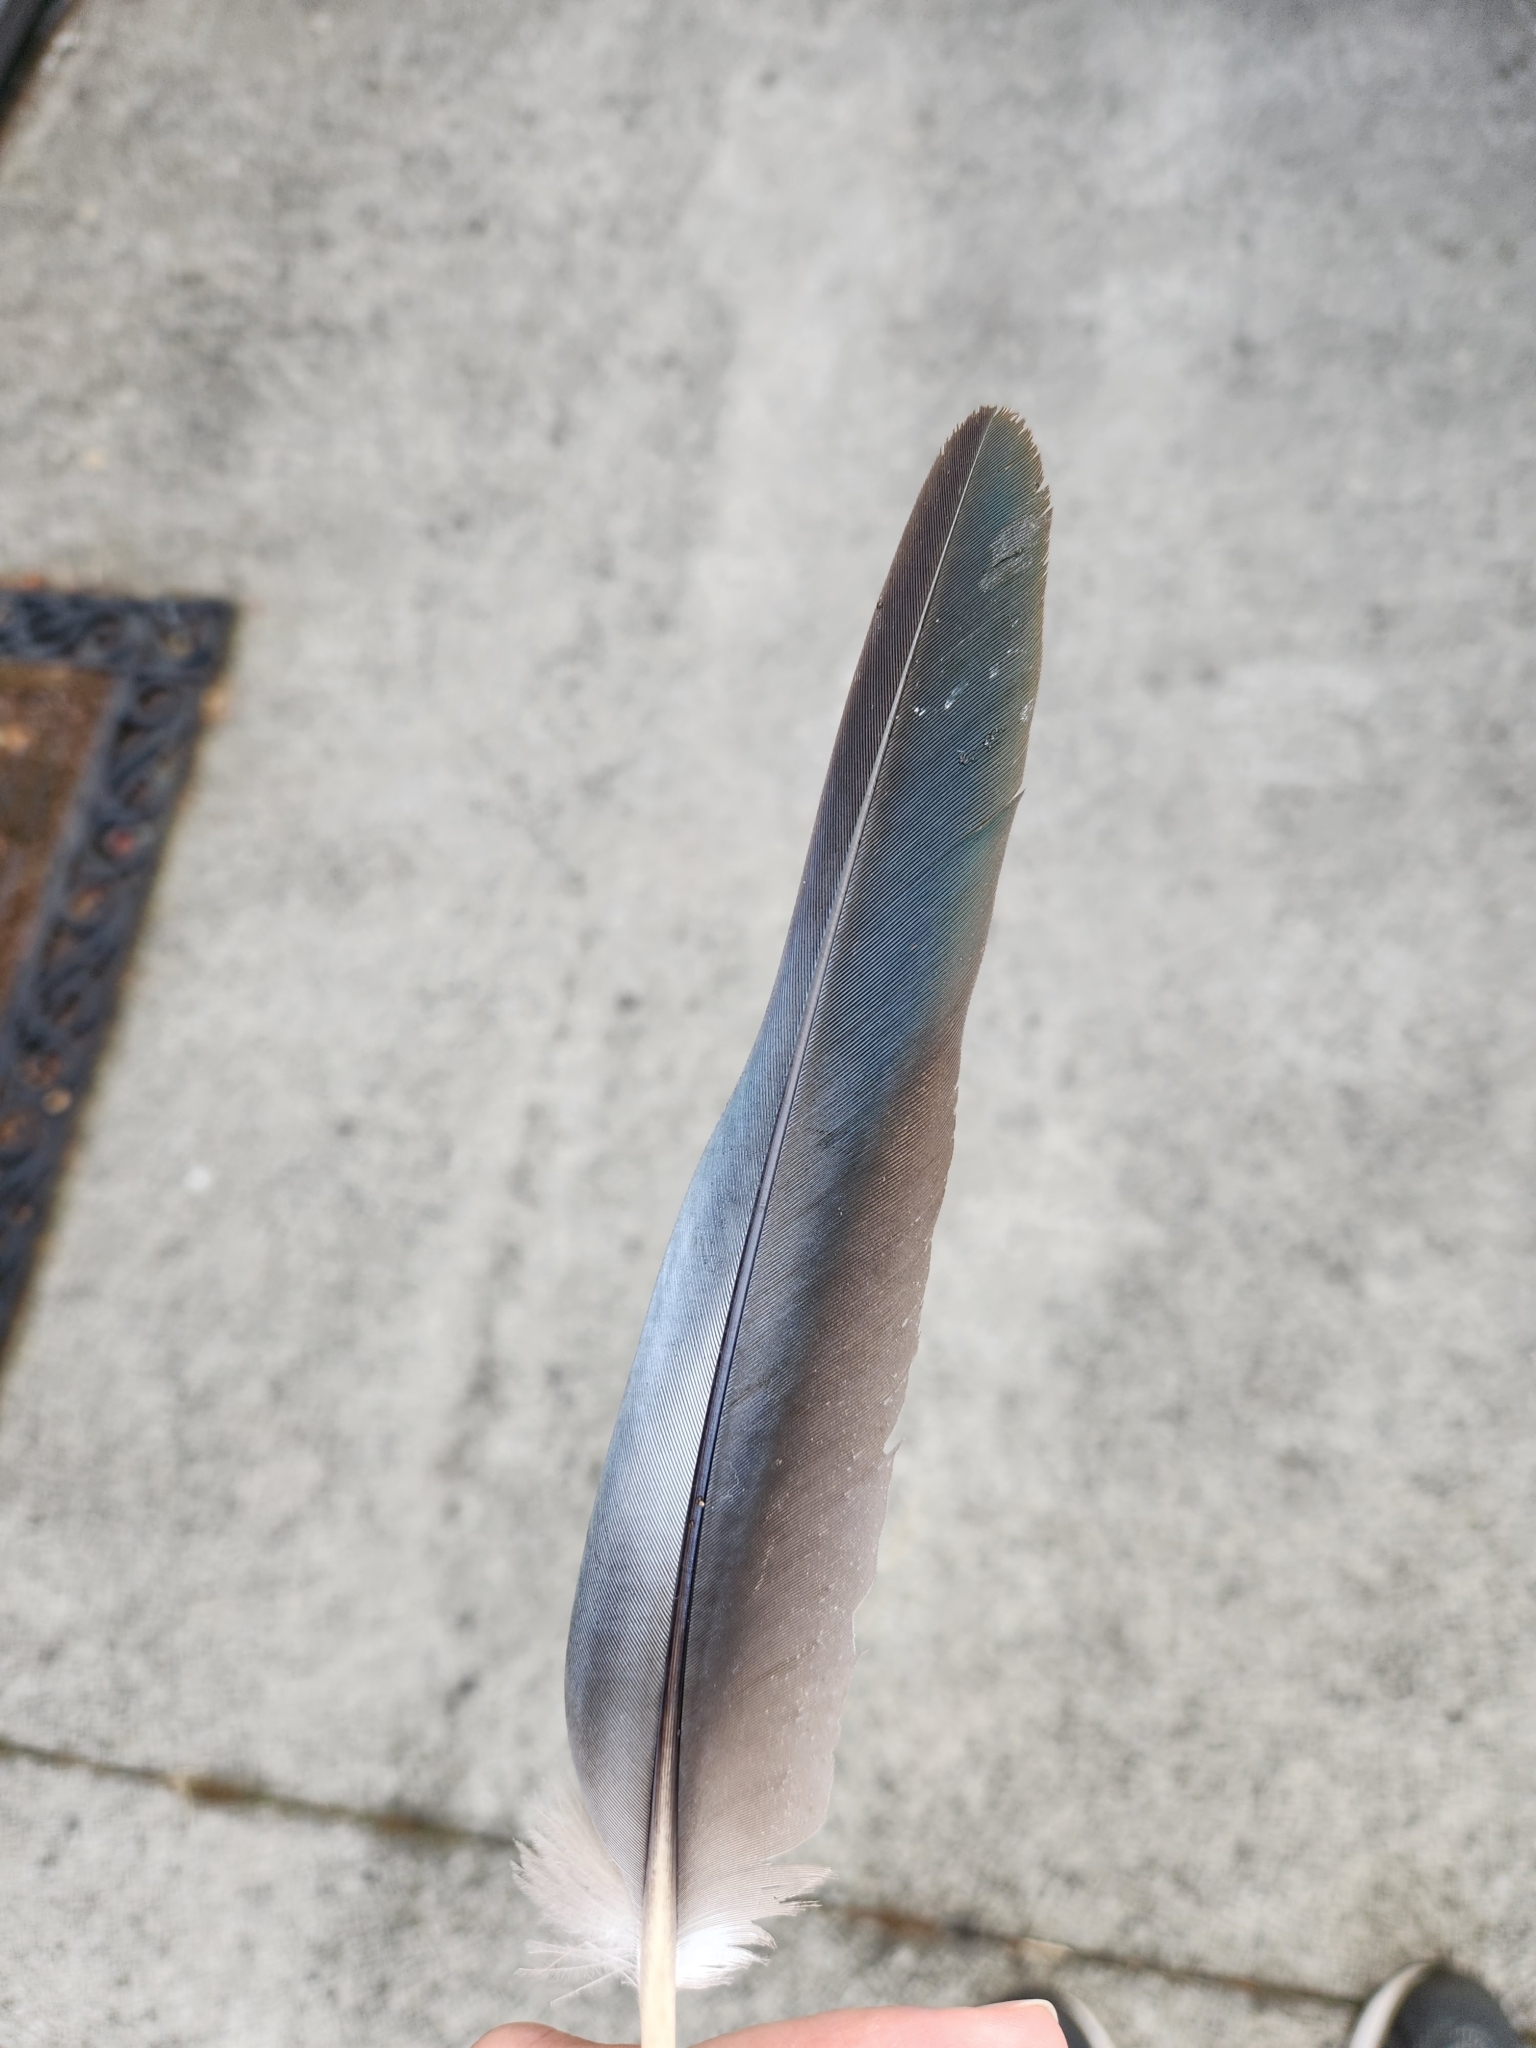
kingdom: Animalia
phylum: Chordata
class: Aves
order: Columbiformes
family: Columbidae
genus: Hemiphaga
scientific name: Hemiphaga novaeseelandiae
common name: New zealand pigeon
